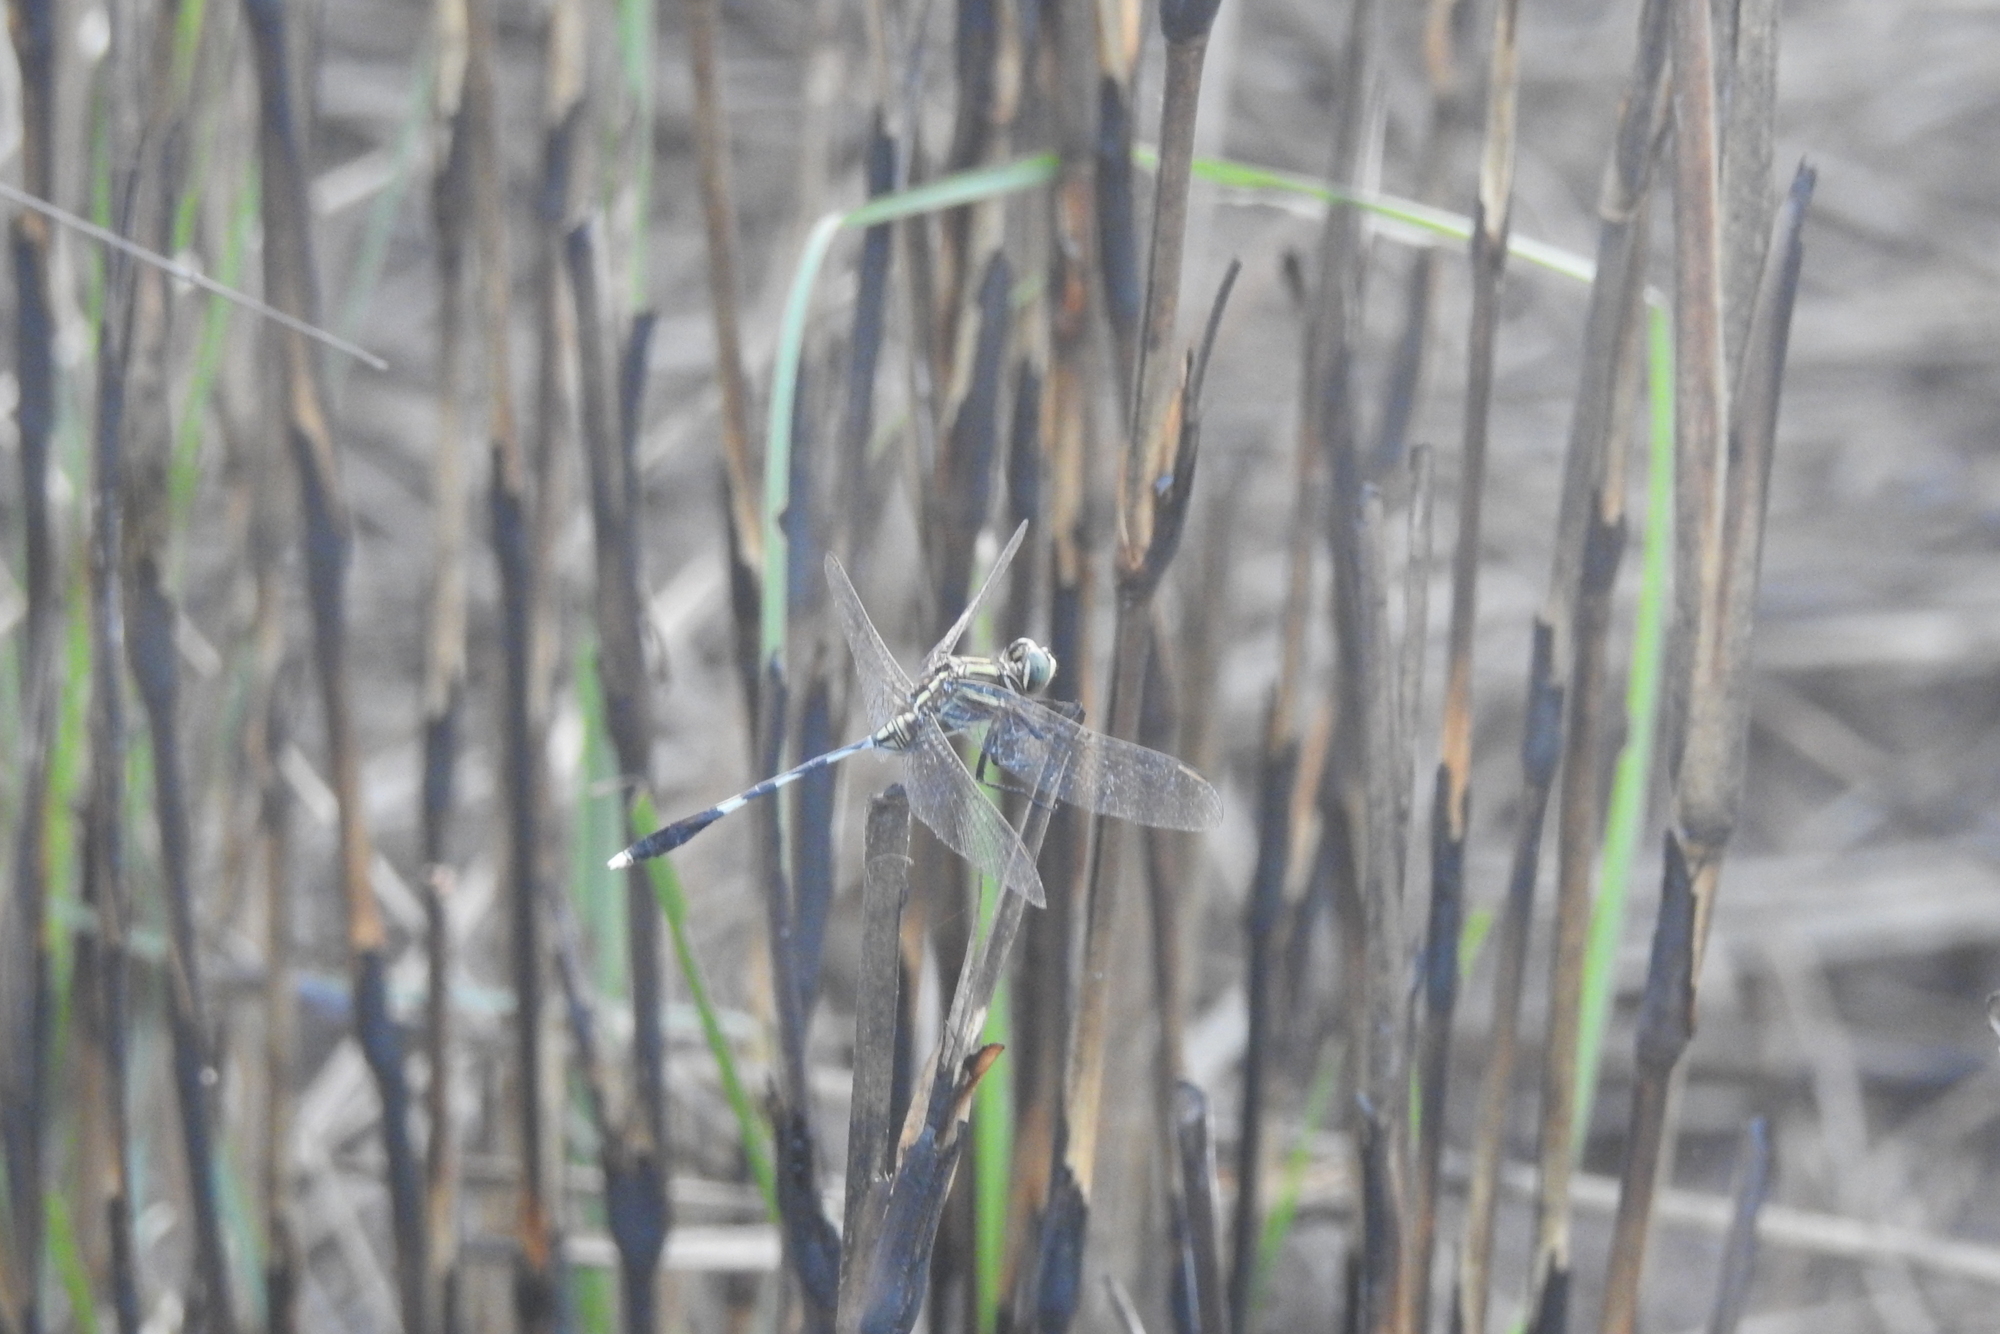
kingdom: Animalia
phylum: Arthropoda
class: Insecta
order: Odonata
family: Libellulidae
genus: Orthetrum
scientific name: Orthetrum sabina
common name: Slender skimmer
